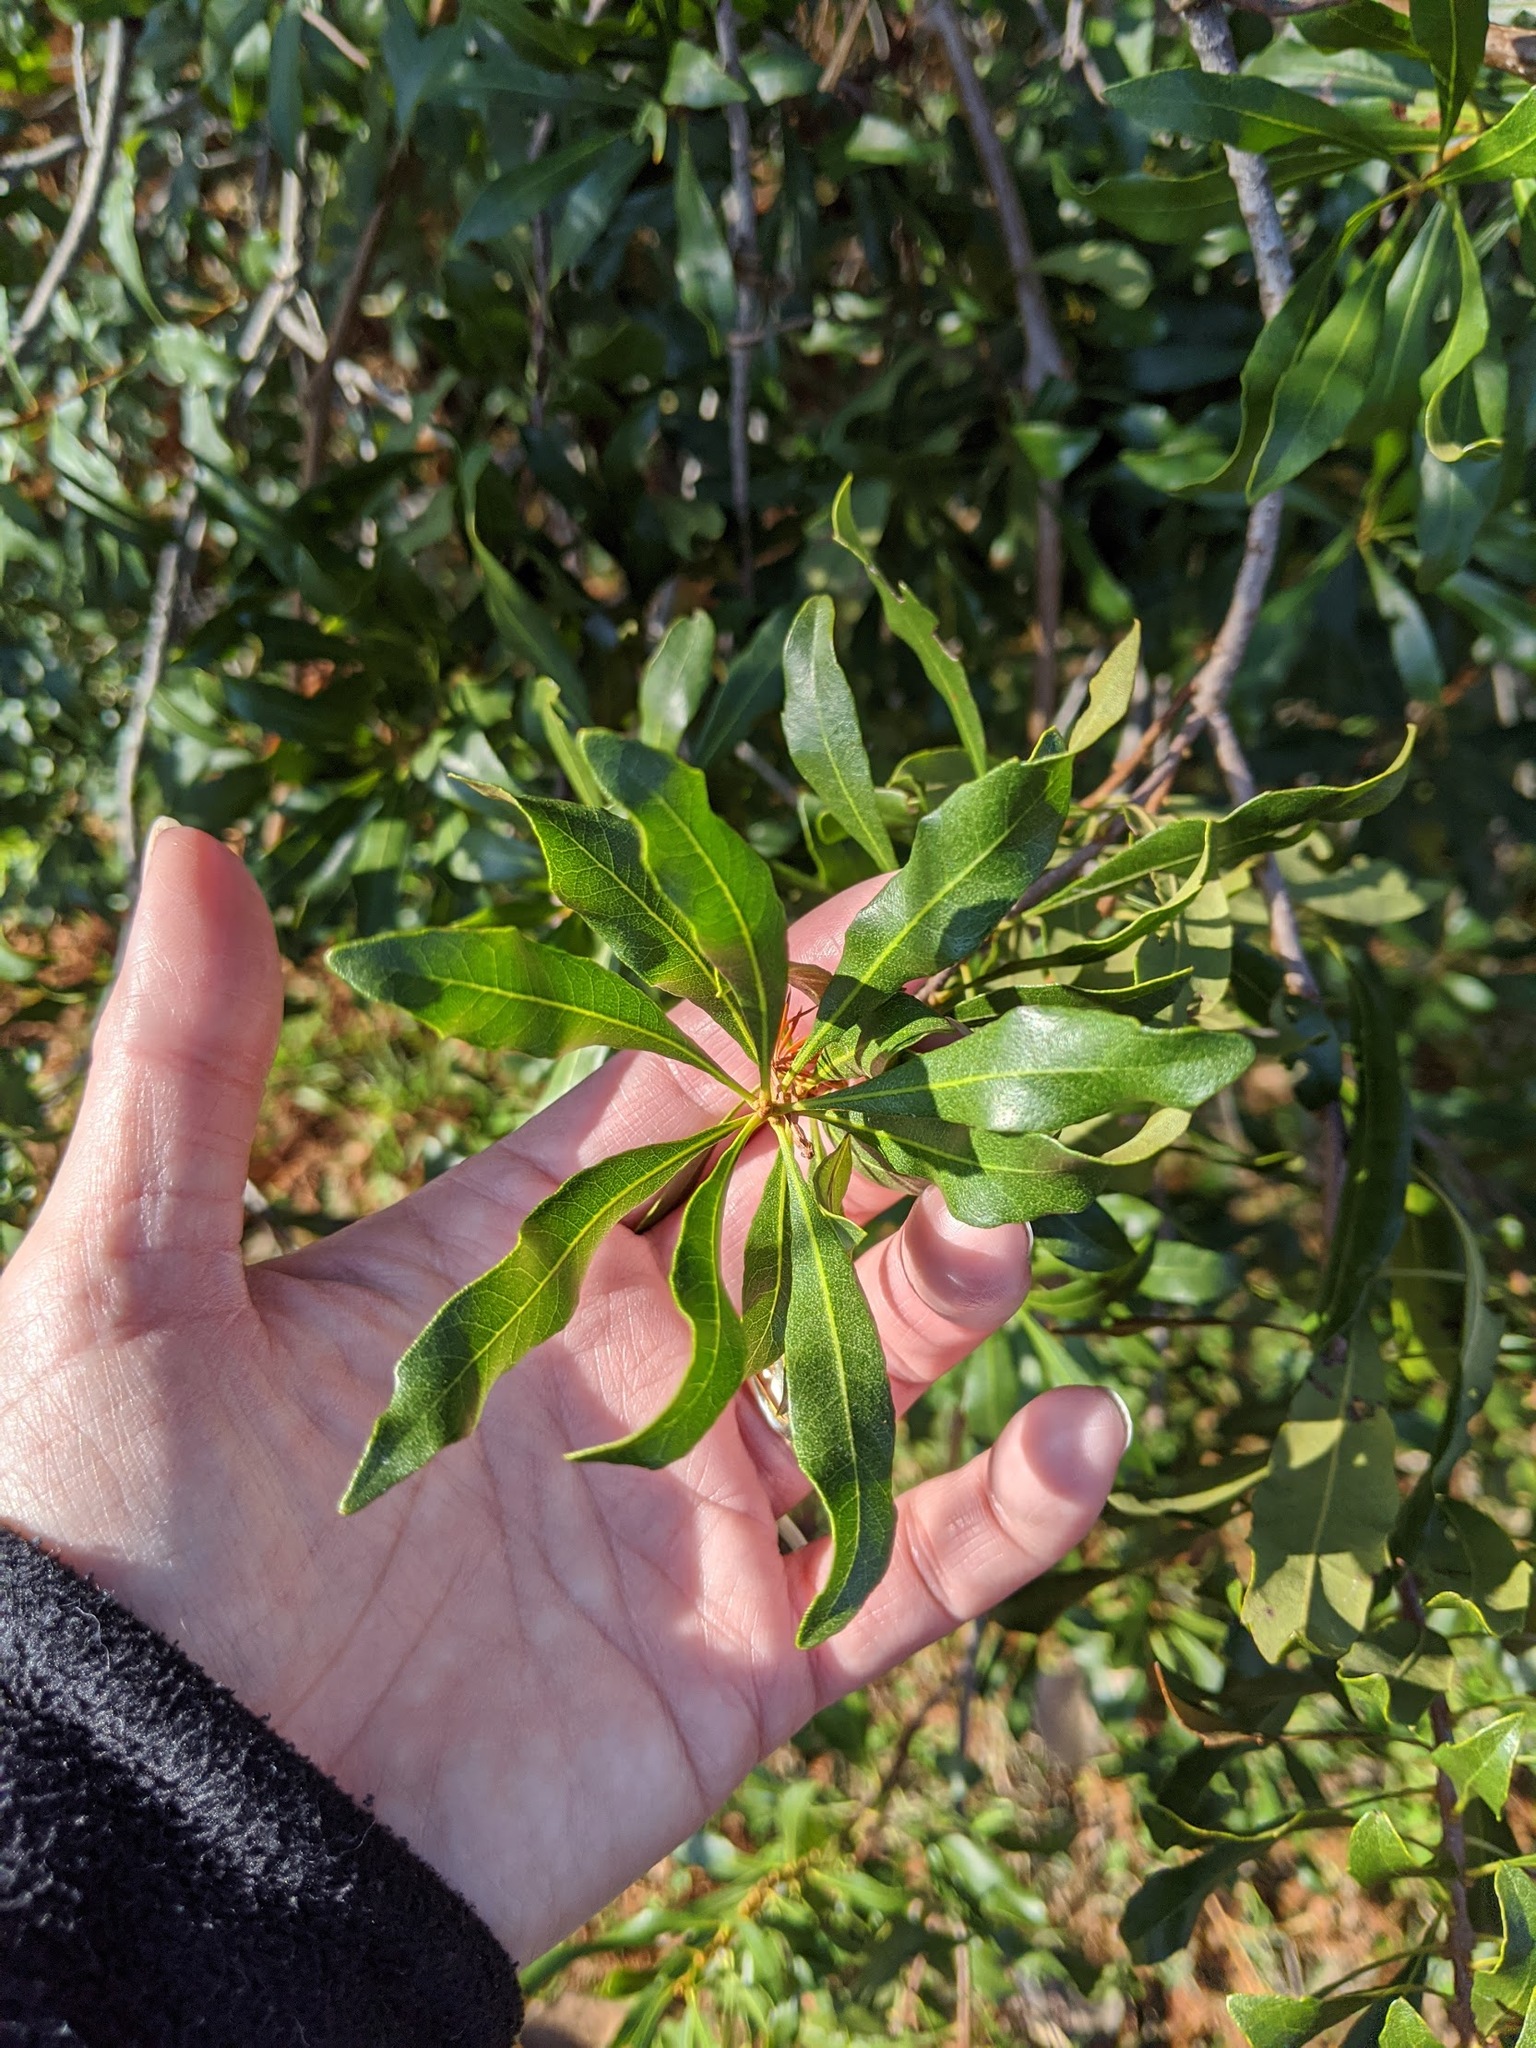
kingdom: Plantae
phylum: Tracheophyta
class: Magnoliopsida
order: Fagales
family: Myricaceae
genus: Morella
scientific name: Morella cerifera
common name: Wax myrtle
